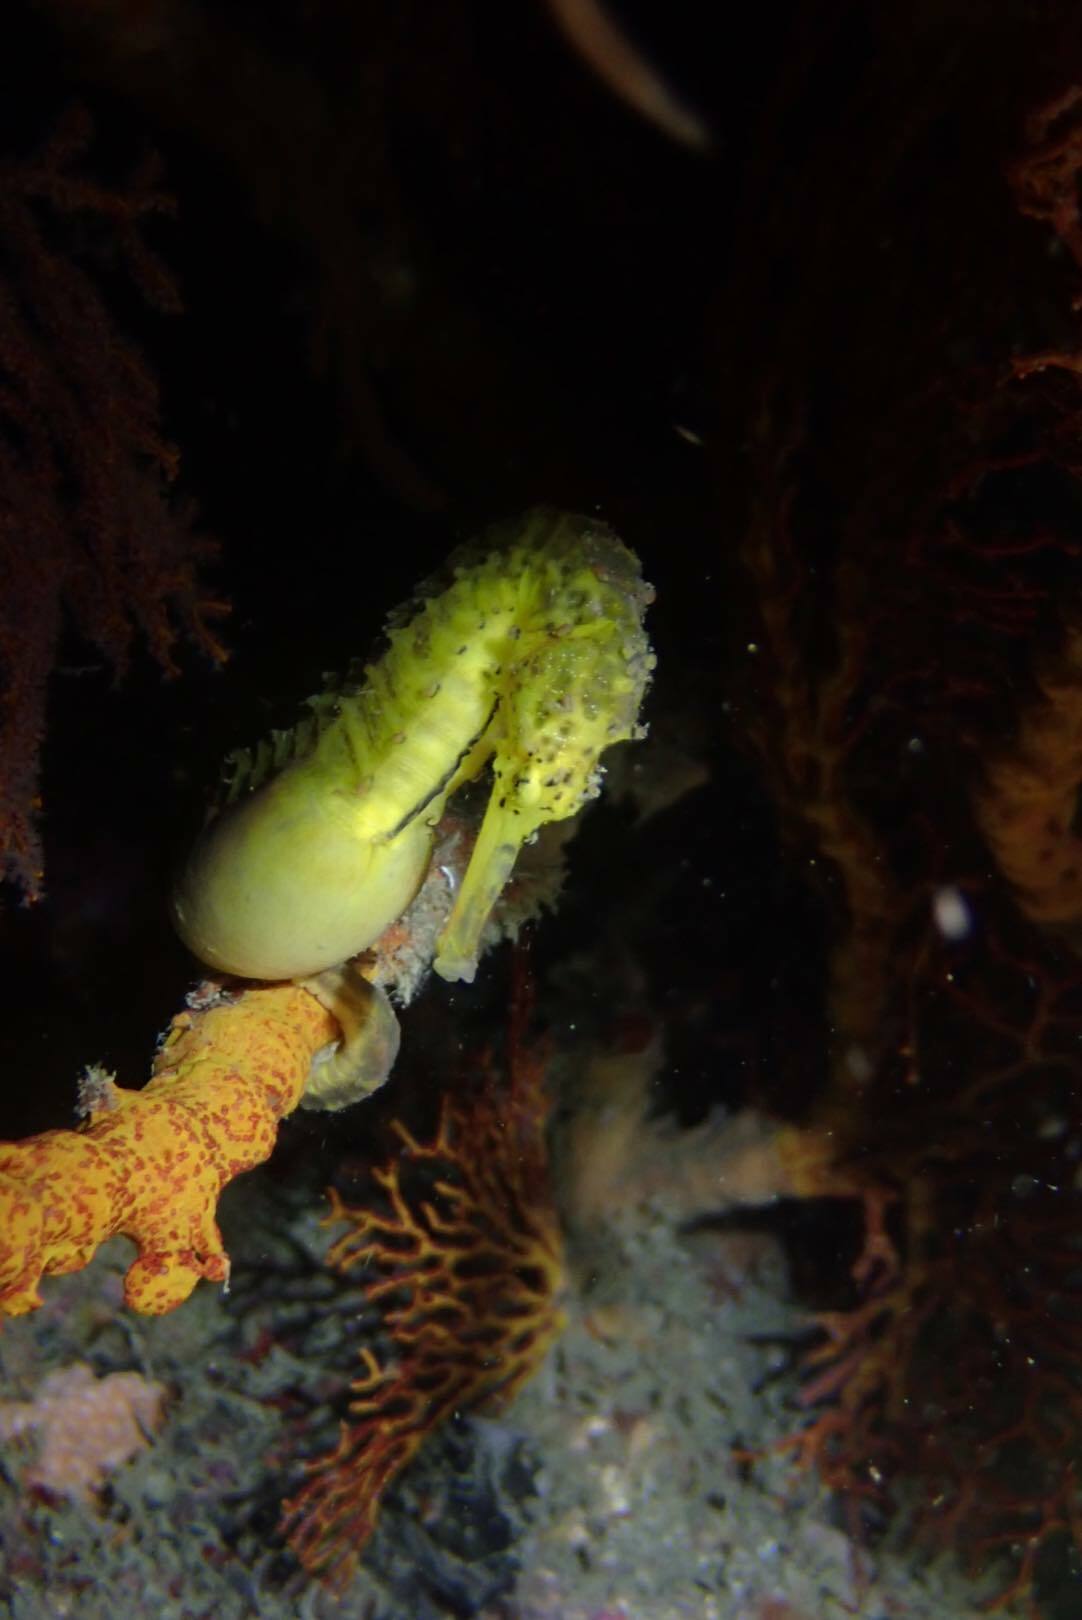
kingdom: Animalia
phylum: Chordata
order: Syngnathiformes
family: Syngnathidae
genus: Hippocampus
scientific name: Hippocampus comes
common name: Tiger tail seahorse
